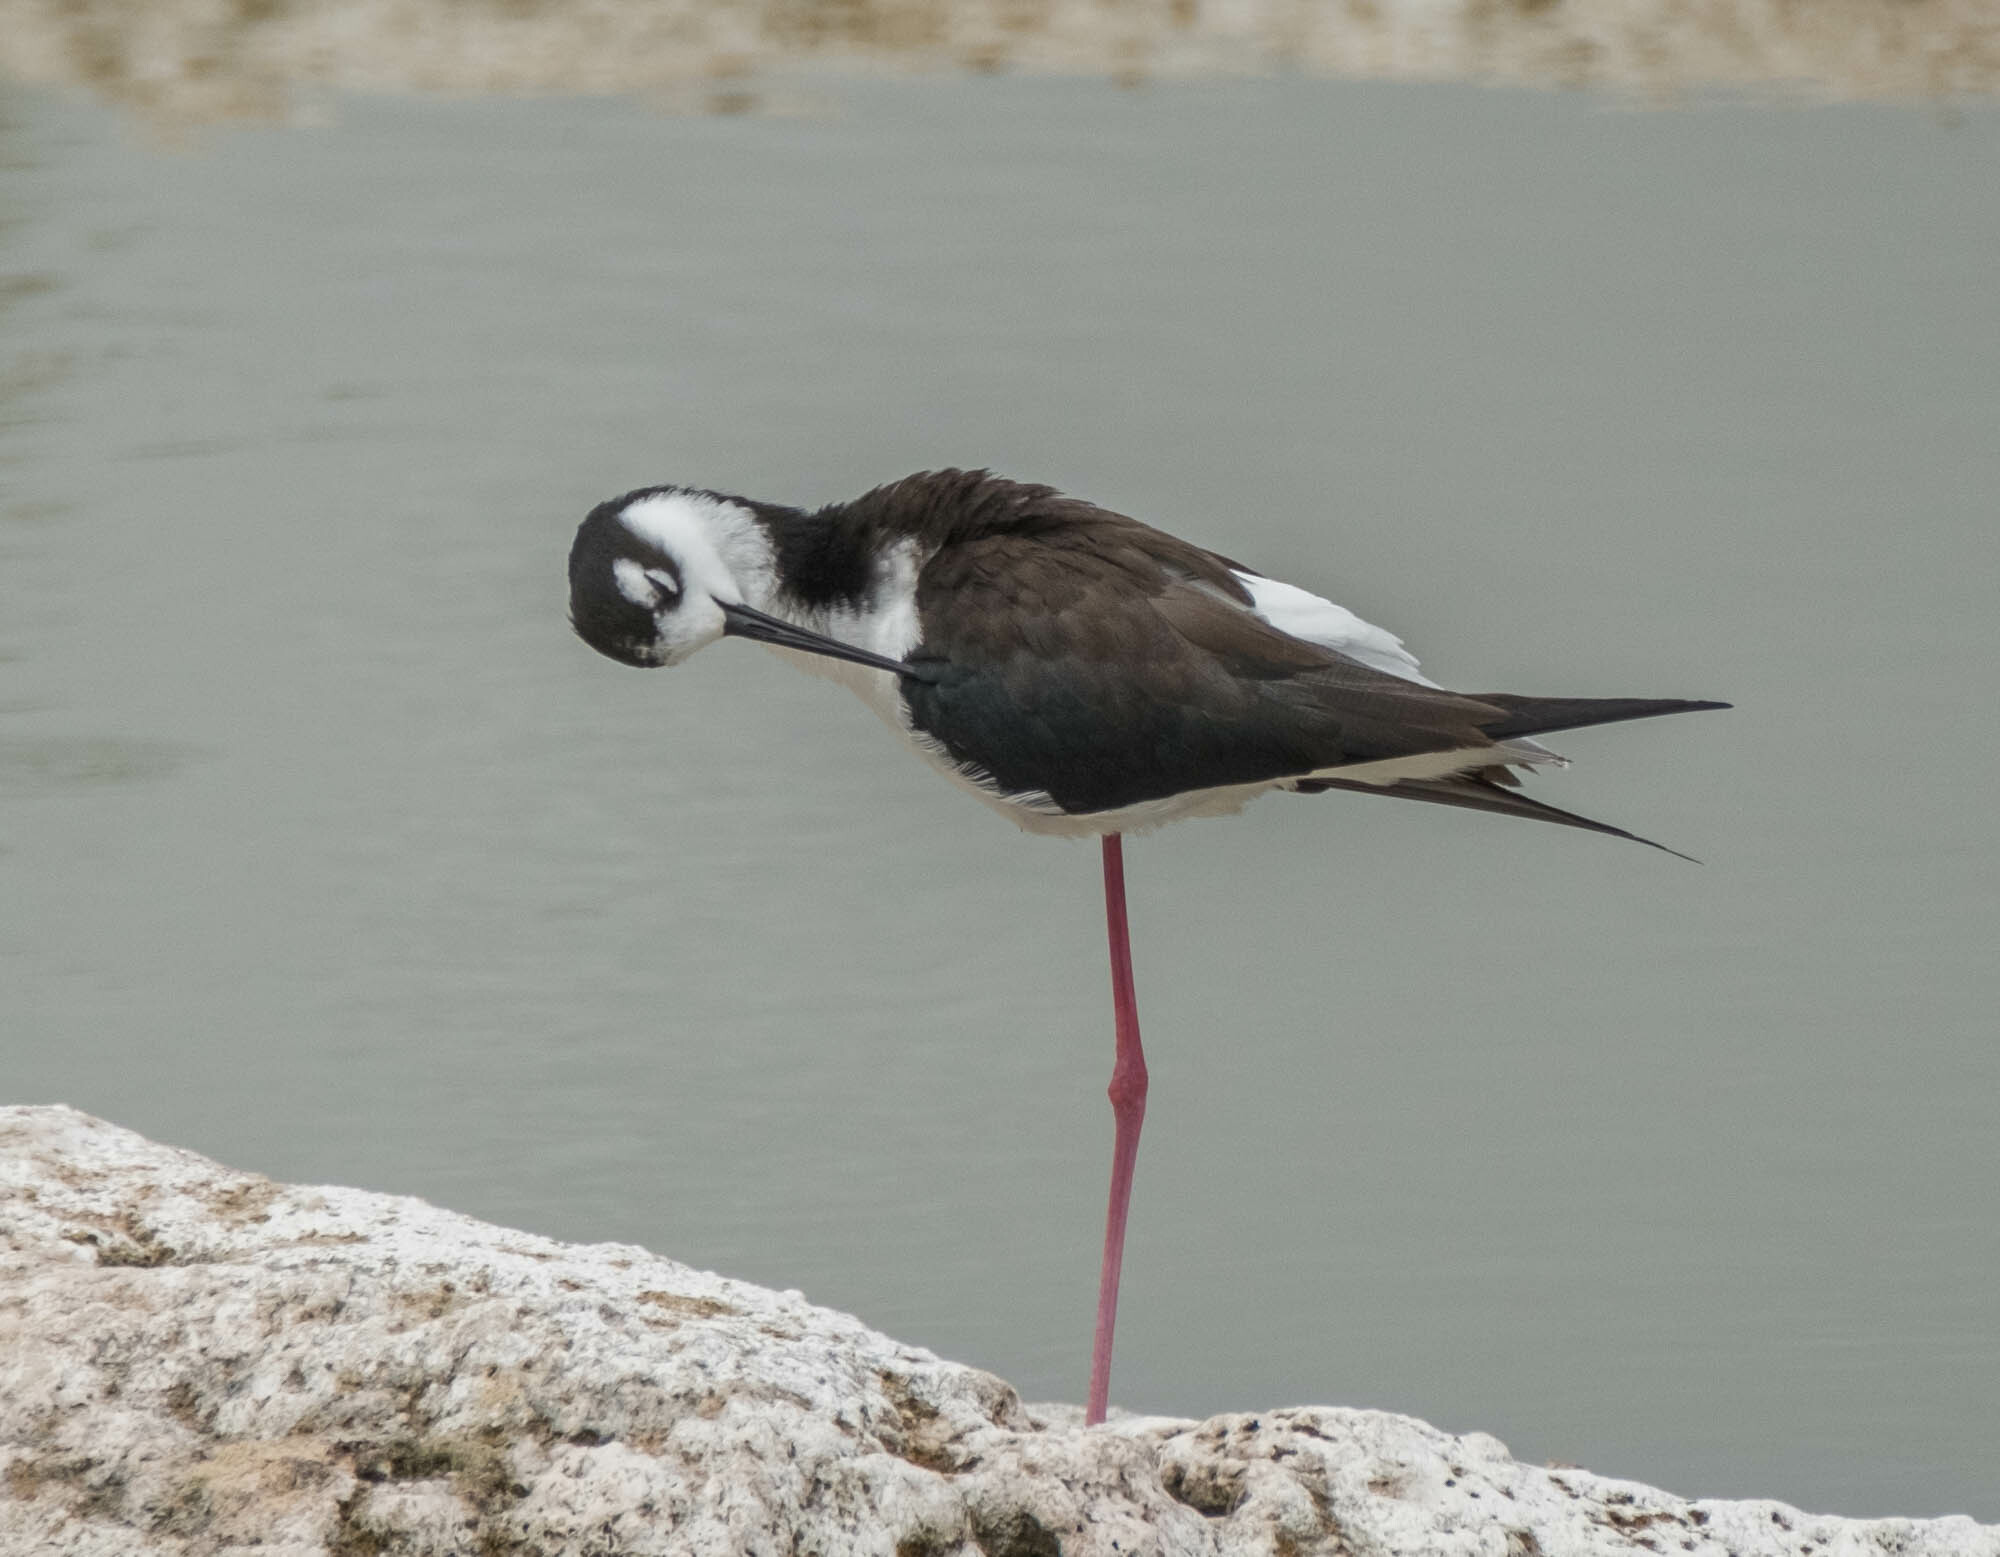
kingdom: Animalia
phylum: Chordata
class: Aves
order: Charadriiformes
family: Recurvirostridae
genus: Himantopus
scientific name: Himantopus mexicanus
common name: Black-necked stilt
